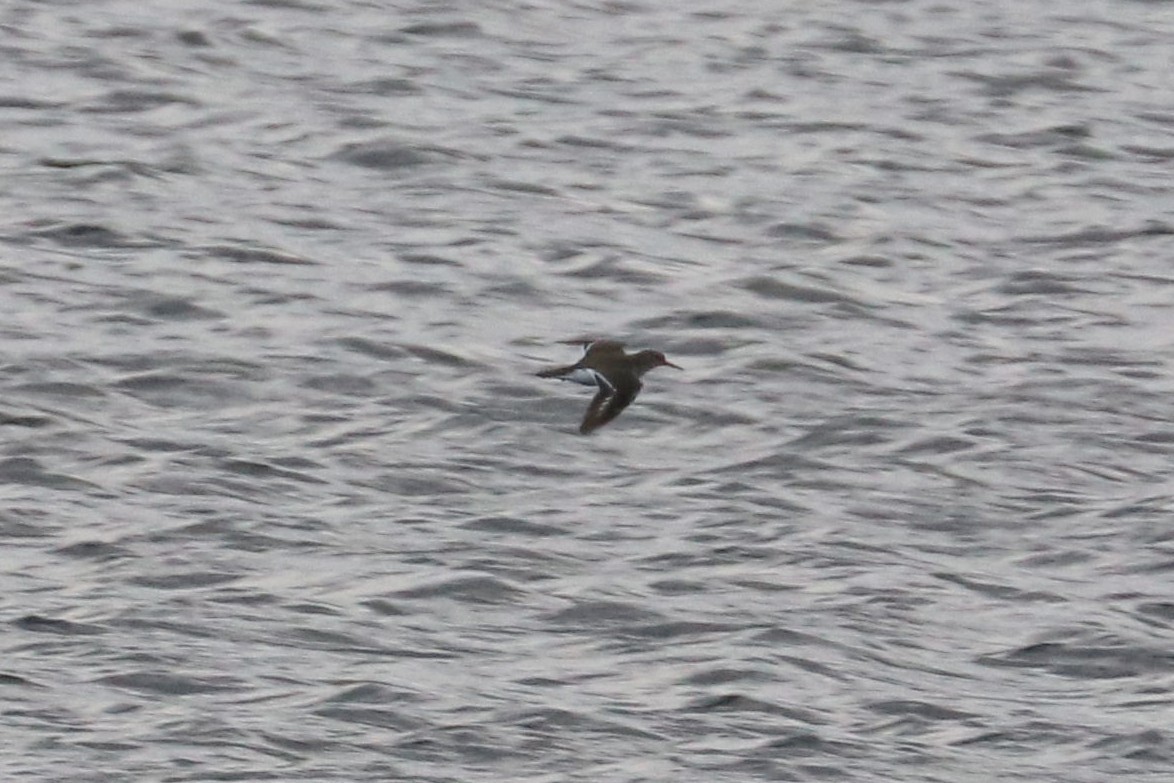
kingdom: Animalia
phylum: Chordata
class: Aves
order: Charadriiformes
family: Scolopacidae
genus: Actitis
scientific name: Actitis hypoleucos
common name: Common sandpiper
